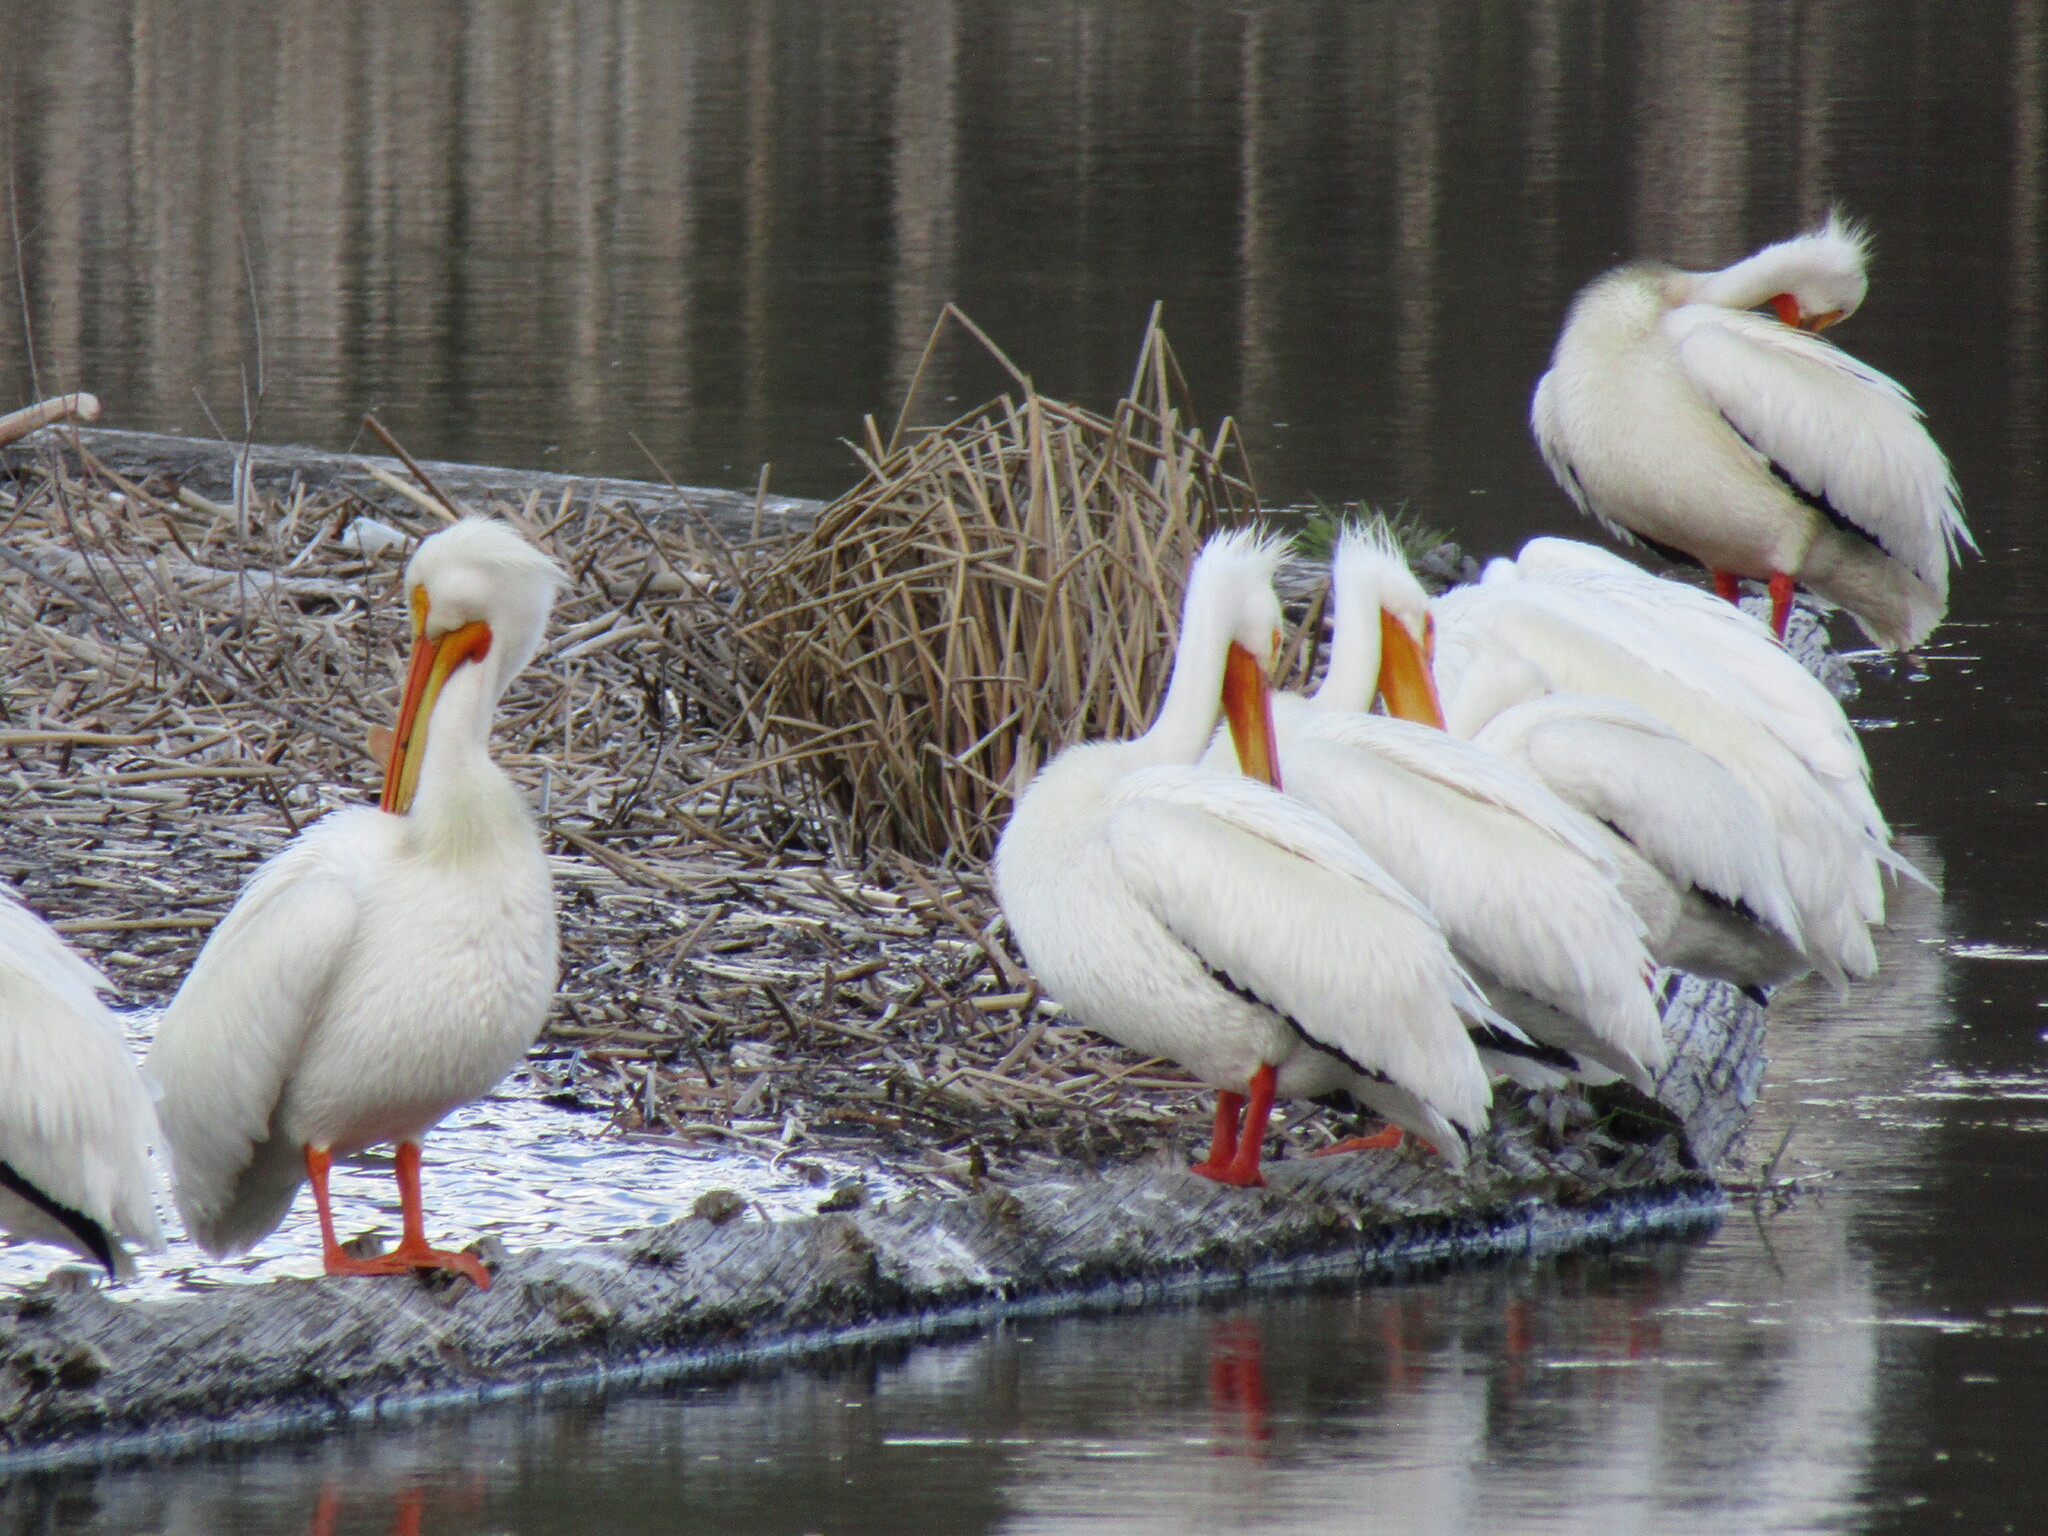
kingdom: Animalia
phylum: Chordata
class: Aves
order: Pelecaniformes
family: Pelecanidae
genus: Pelecanus
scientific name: Pelecanus erythrorhynchos
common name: American white pelican
